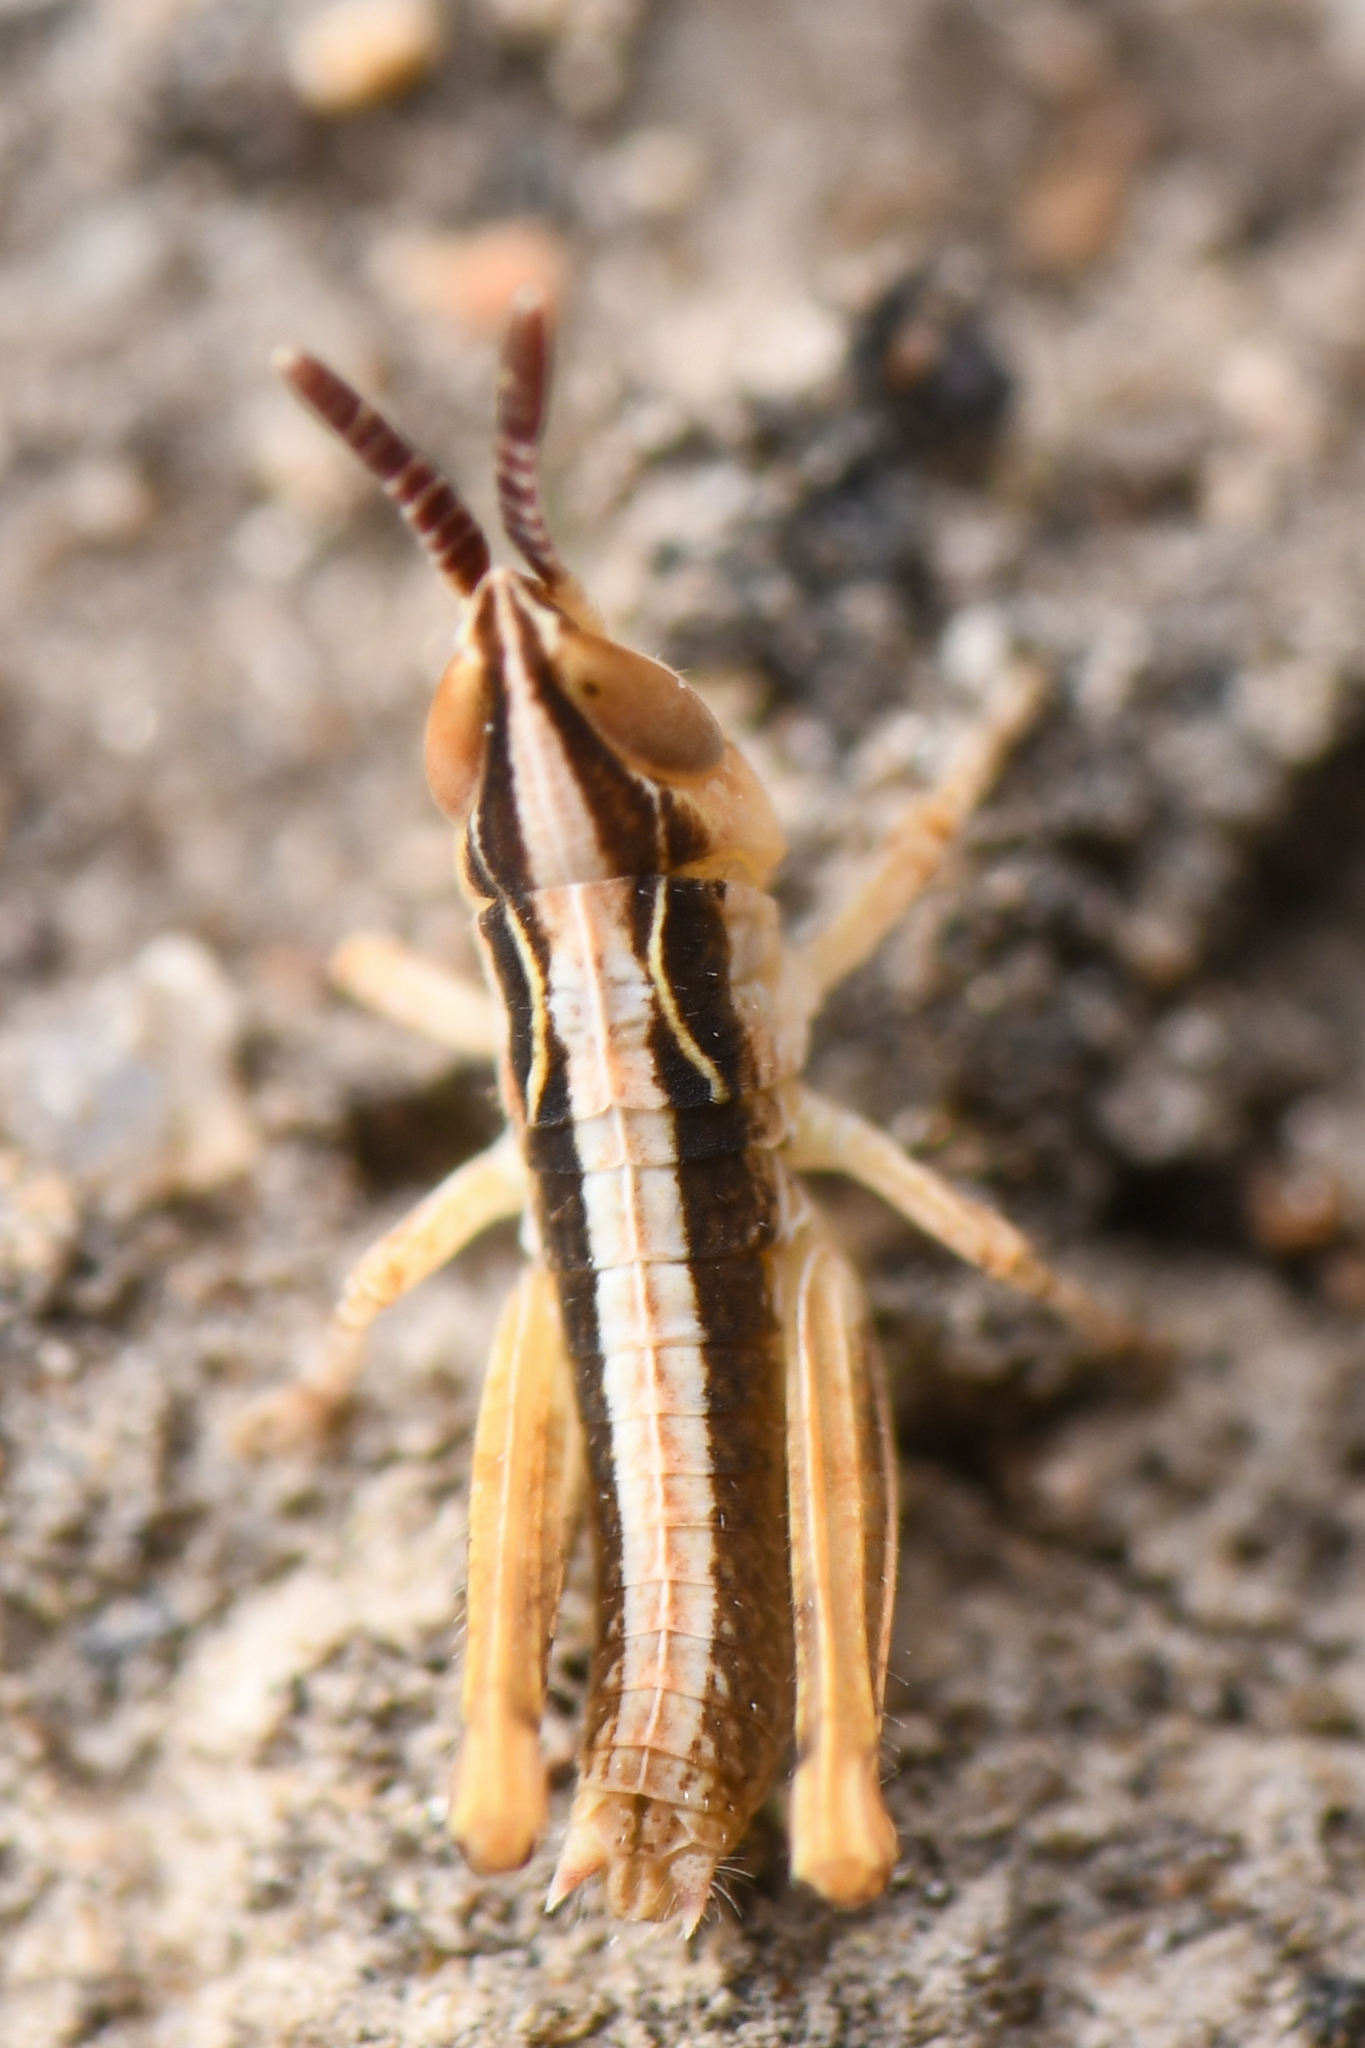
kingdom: Animalia
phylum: Arthropoda
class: Insecta
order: Orthoptera
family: Acrididae
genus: Psoloessa
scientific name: Psoloessa texana
